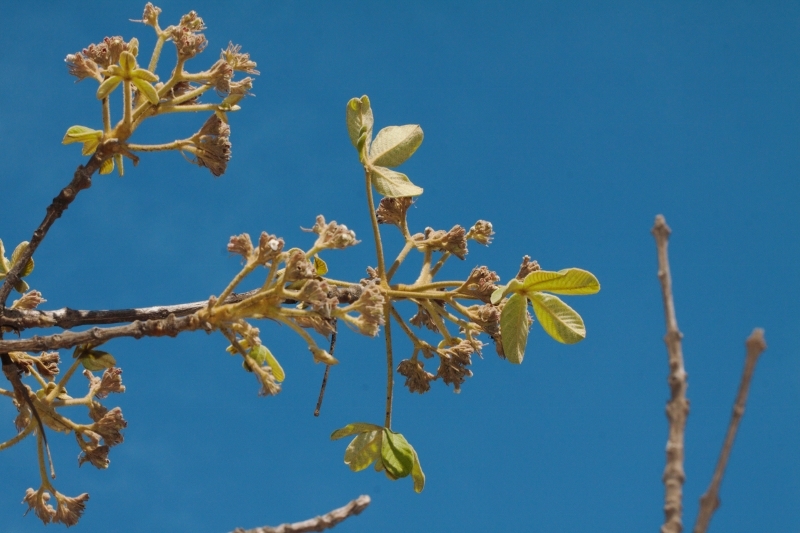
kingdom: Plantae
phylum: Tracheophyta
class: Magnoliopsida
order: Lamiales
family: Lamiaceae
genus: Vitex
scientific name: Vitex payos
